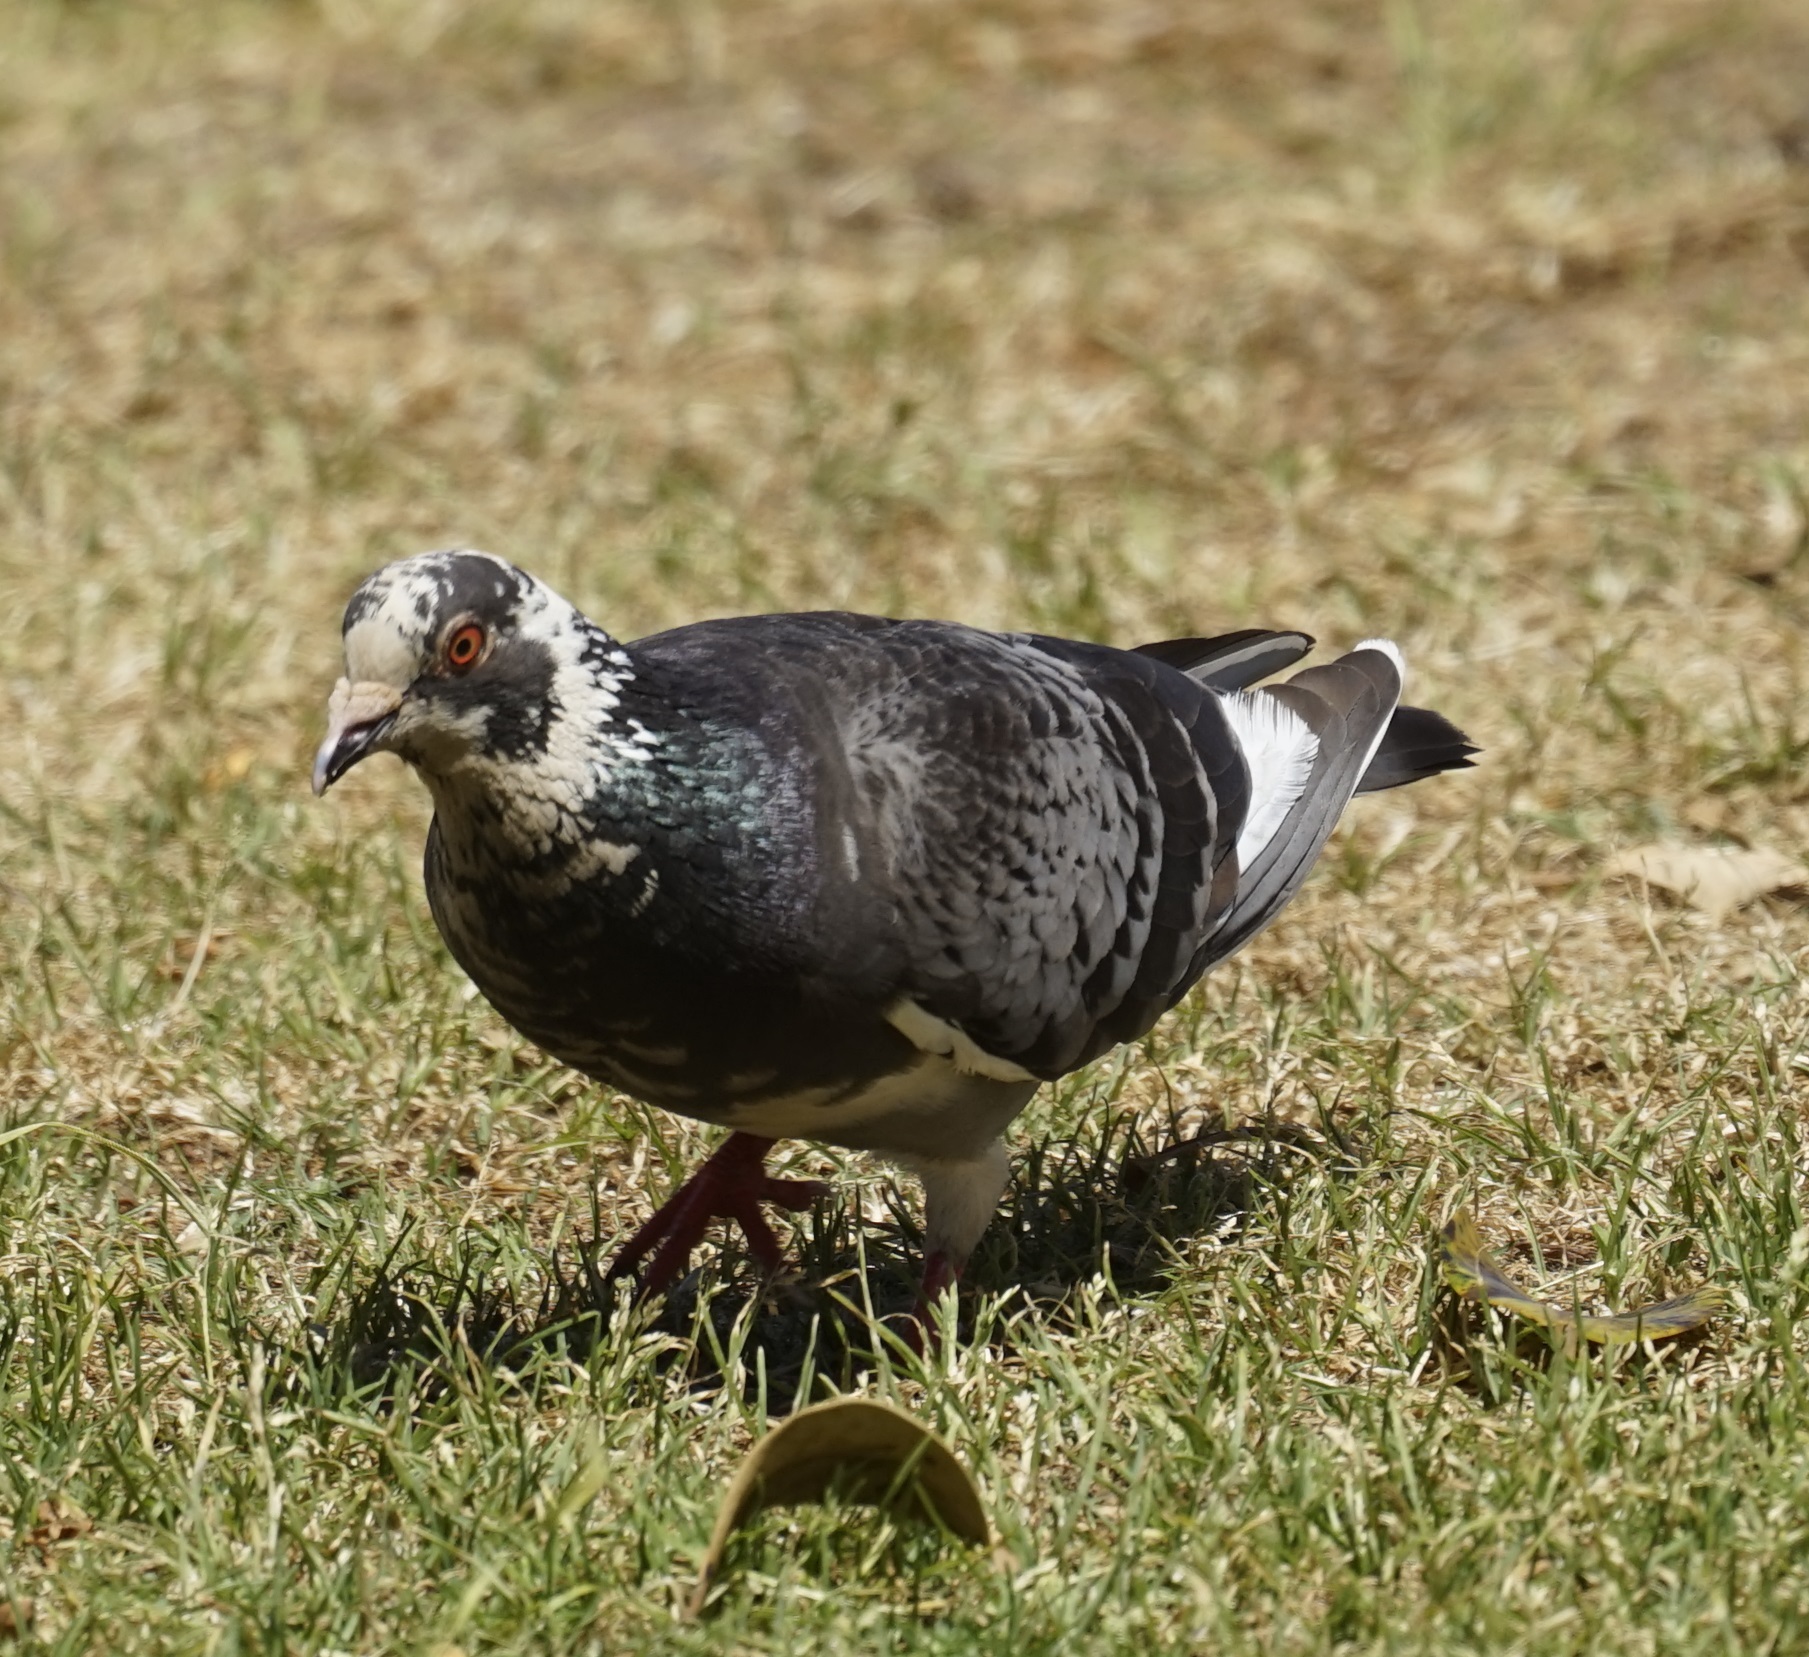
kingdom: Animalia
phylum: Chordata
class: Aves
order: Columbiformes
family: Columbidae
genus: Columba
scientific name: Columba livia
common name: Rock pigeon
